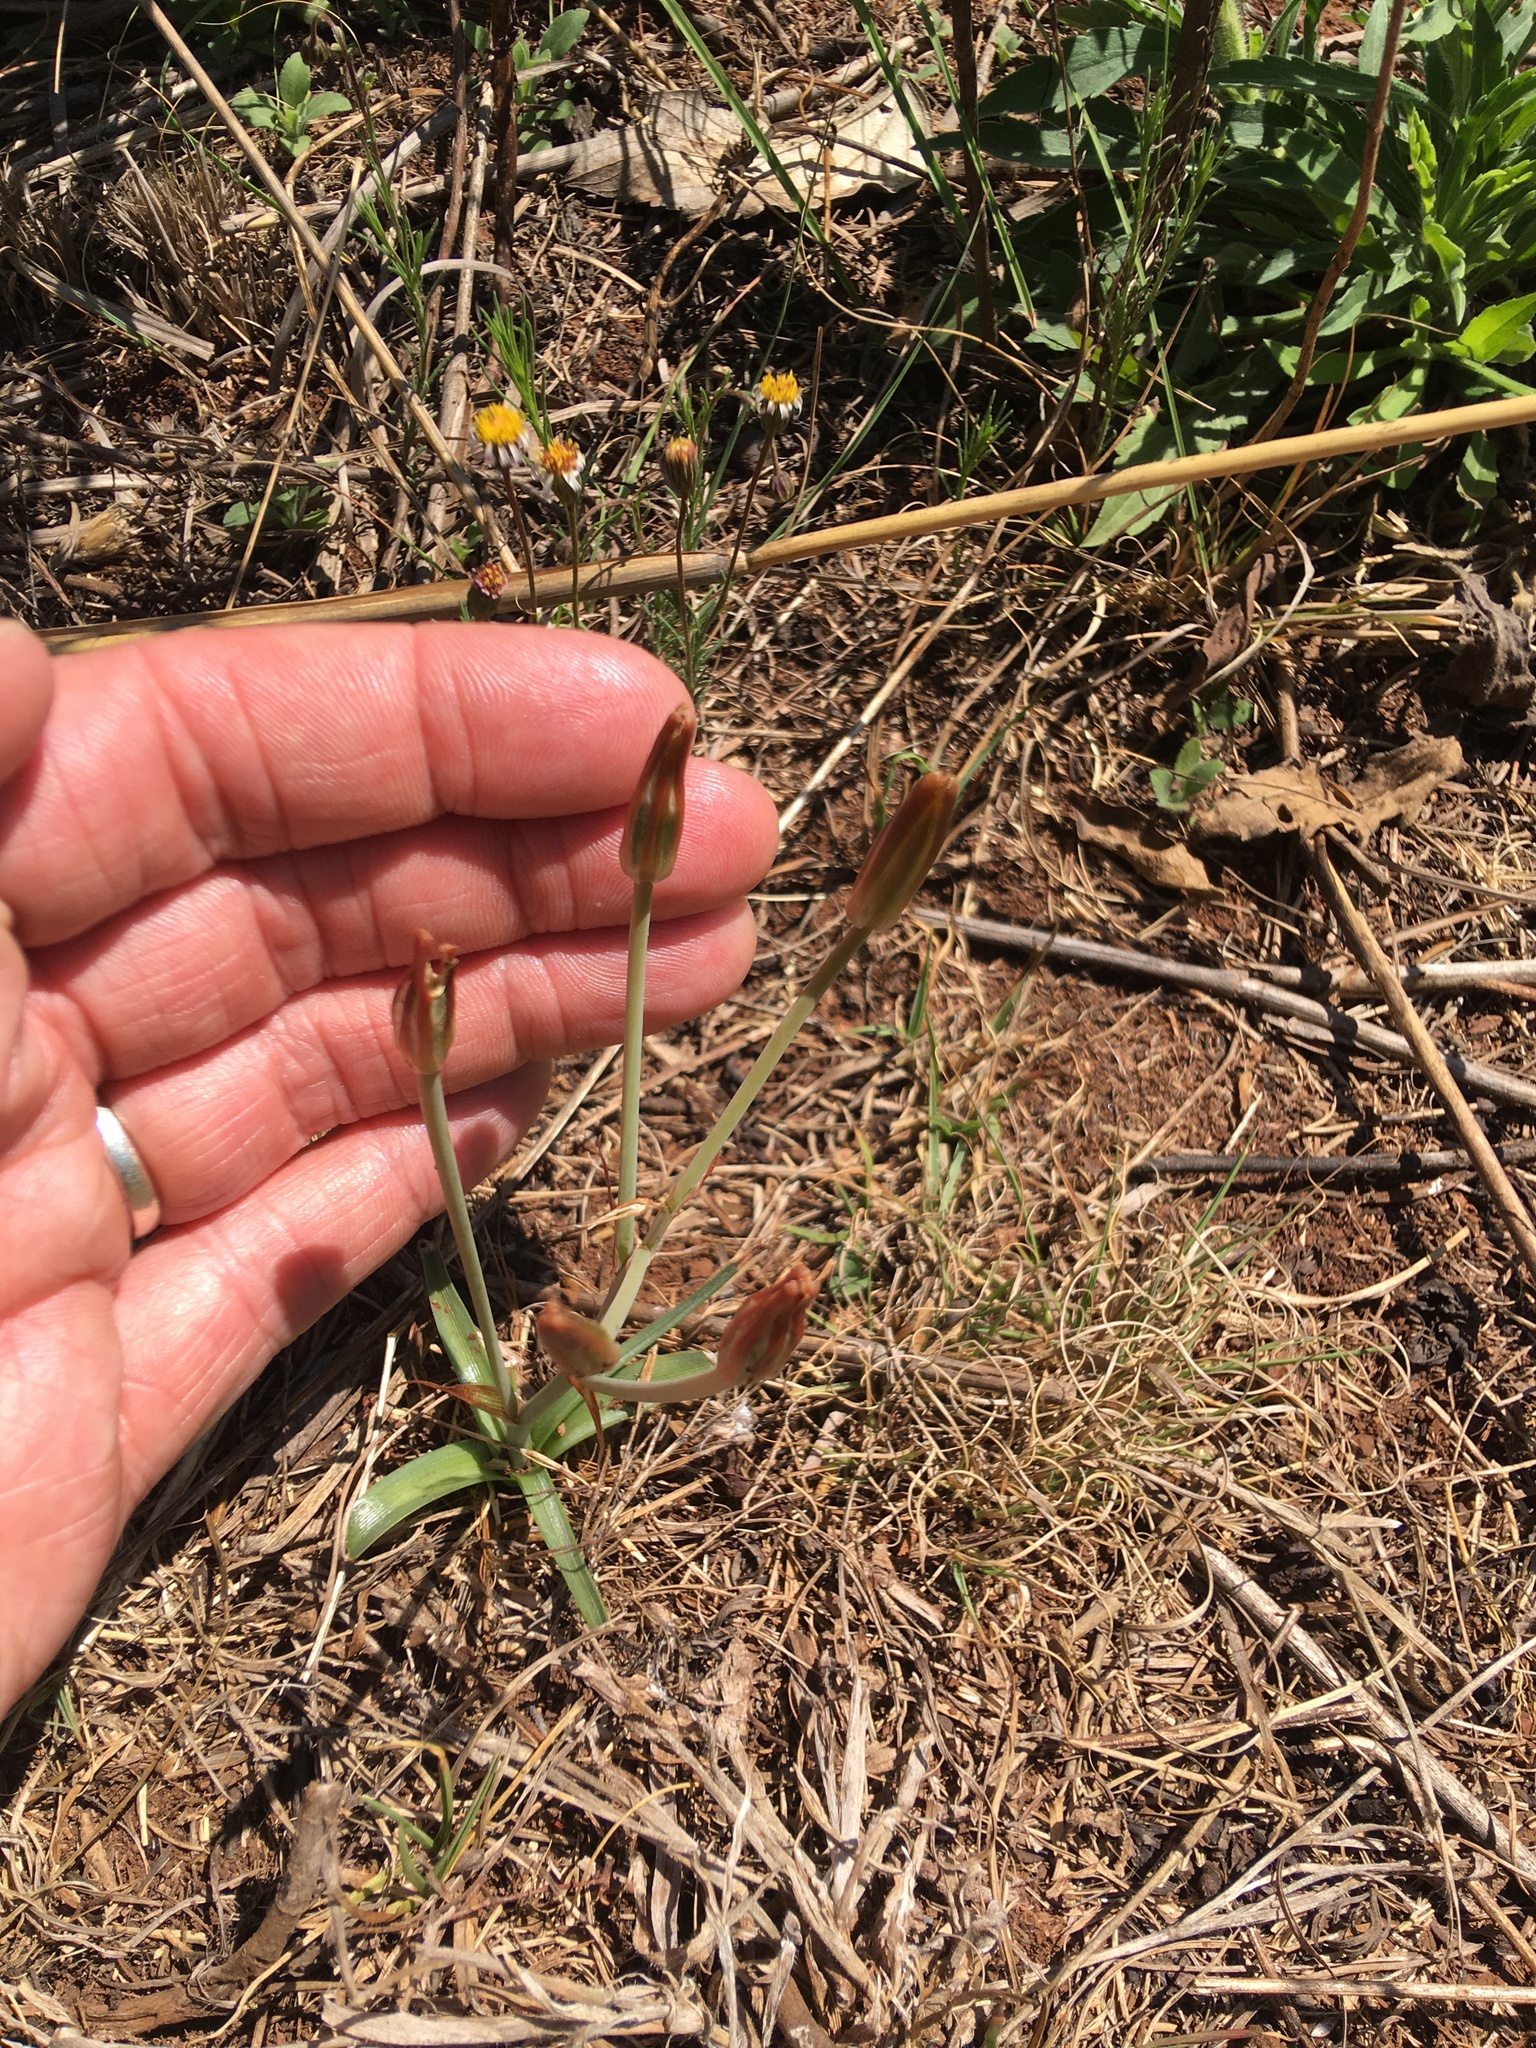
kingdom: Plantae
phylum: Tracheophyta
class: Liliopsida
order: Asparagales
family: Asparagaceae
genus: Albuca
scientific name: Albuca setosa
